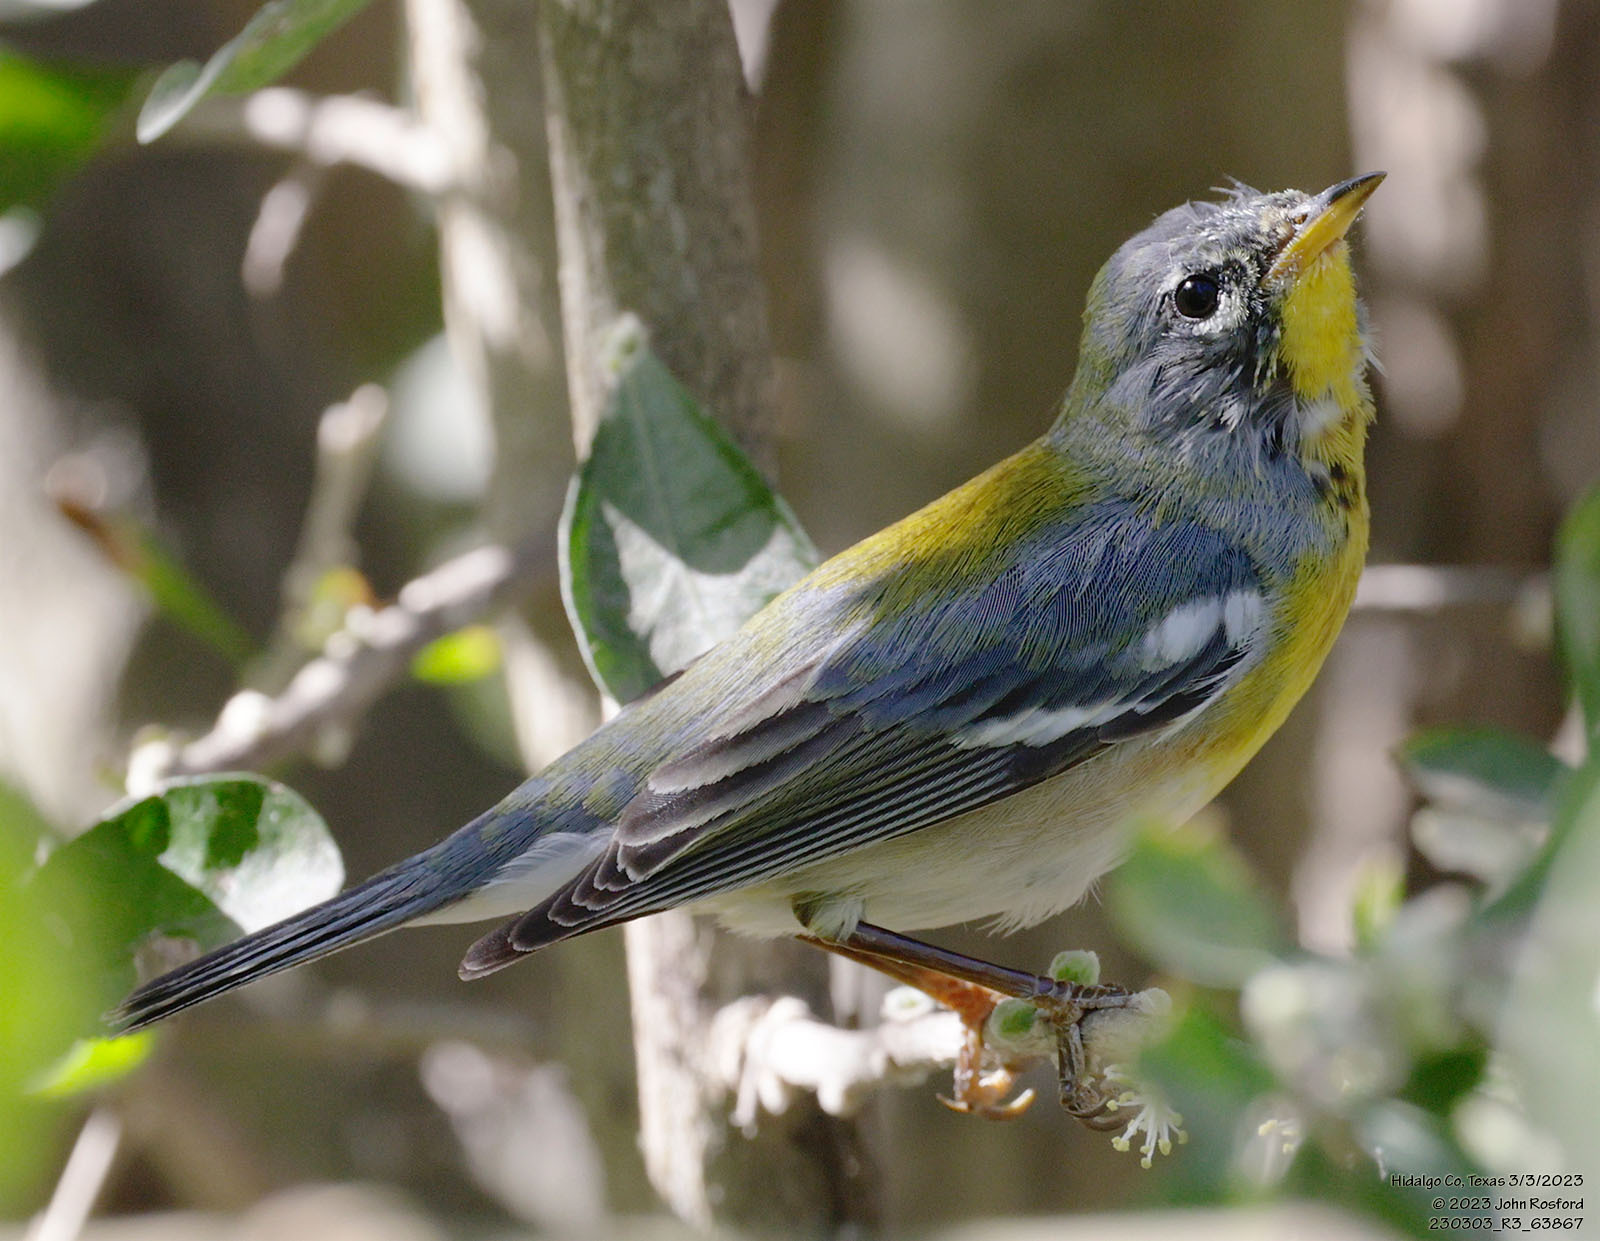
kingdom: Animalia
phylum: Chordata
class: Aves
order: Passeriformes
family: Parulidae
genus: Setophaga
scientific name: Setophaga americana
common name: Northern parula
